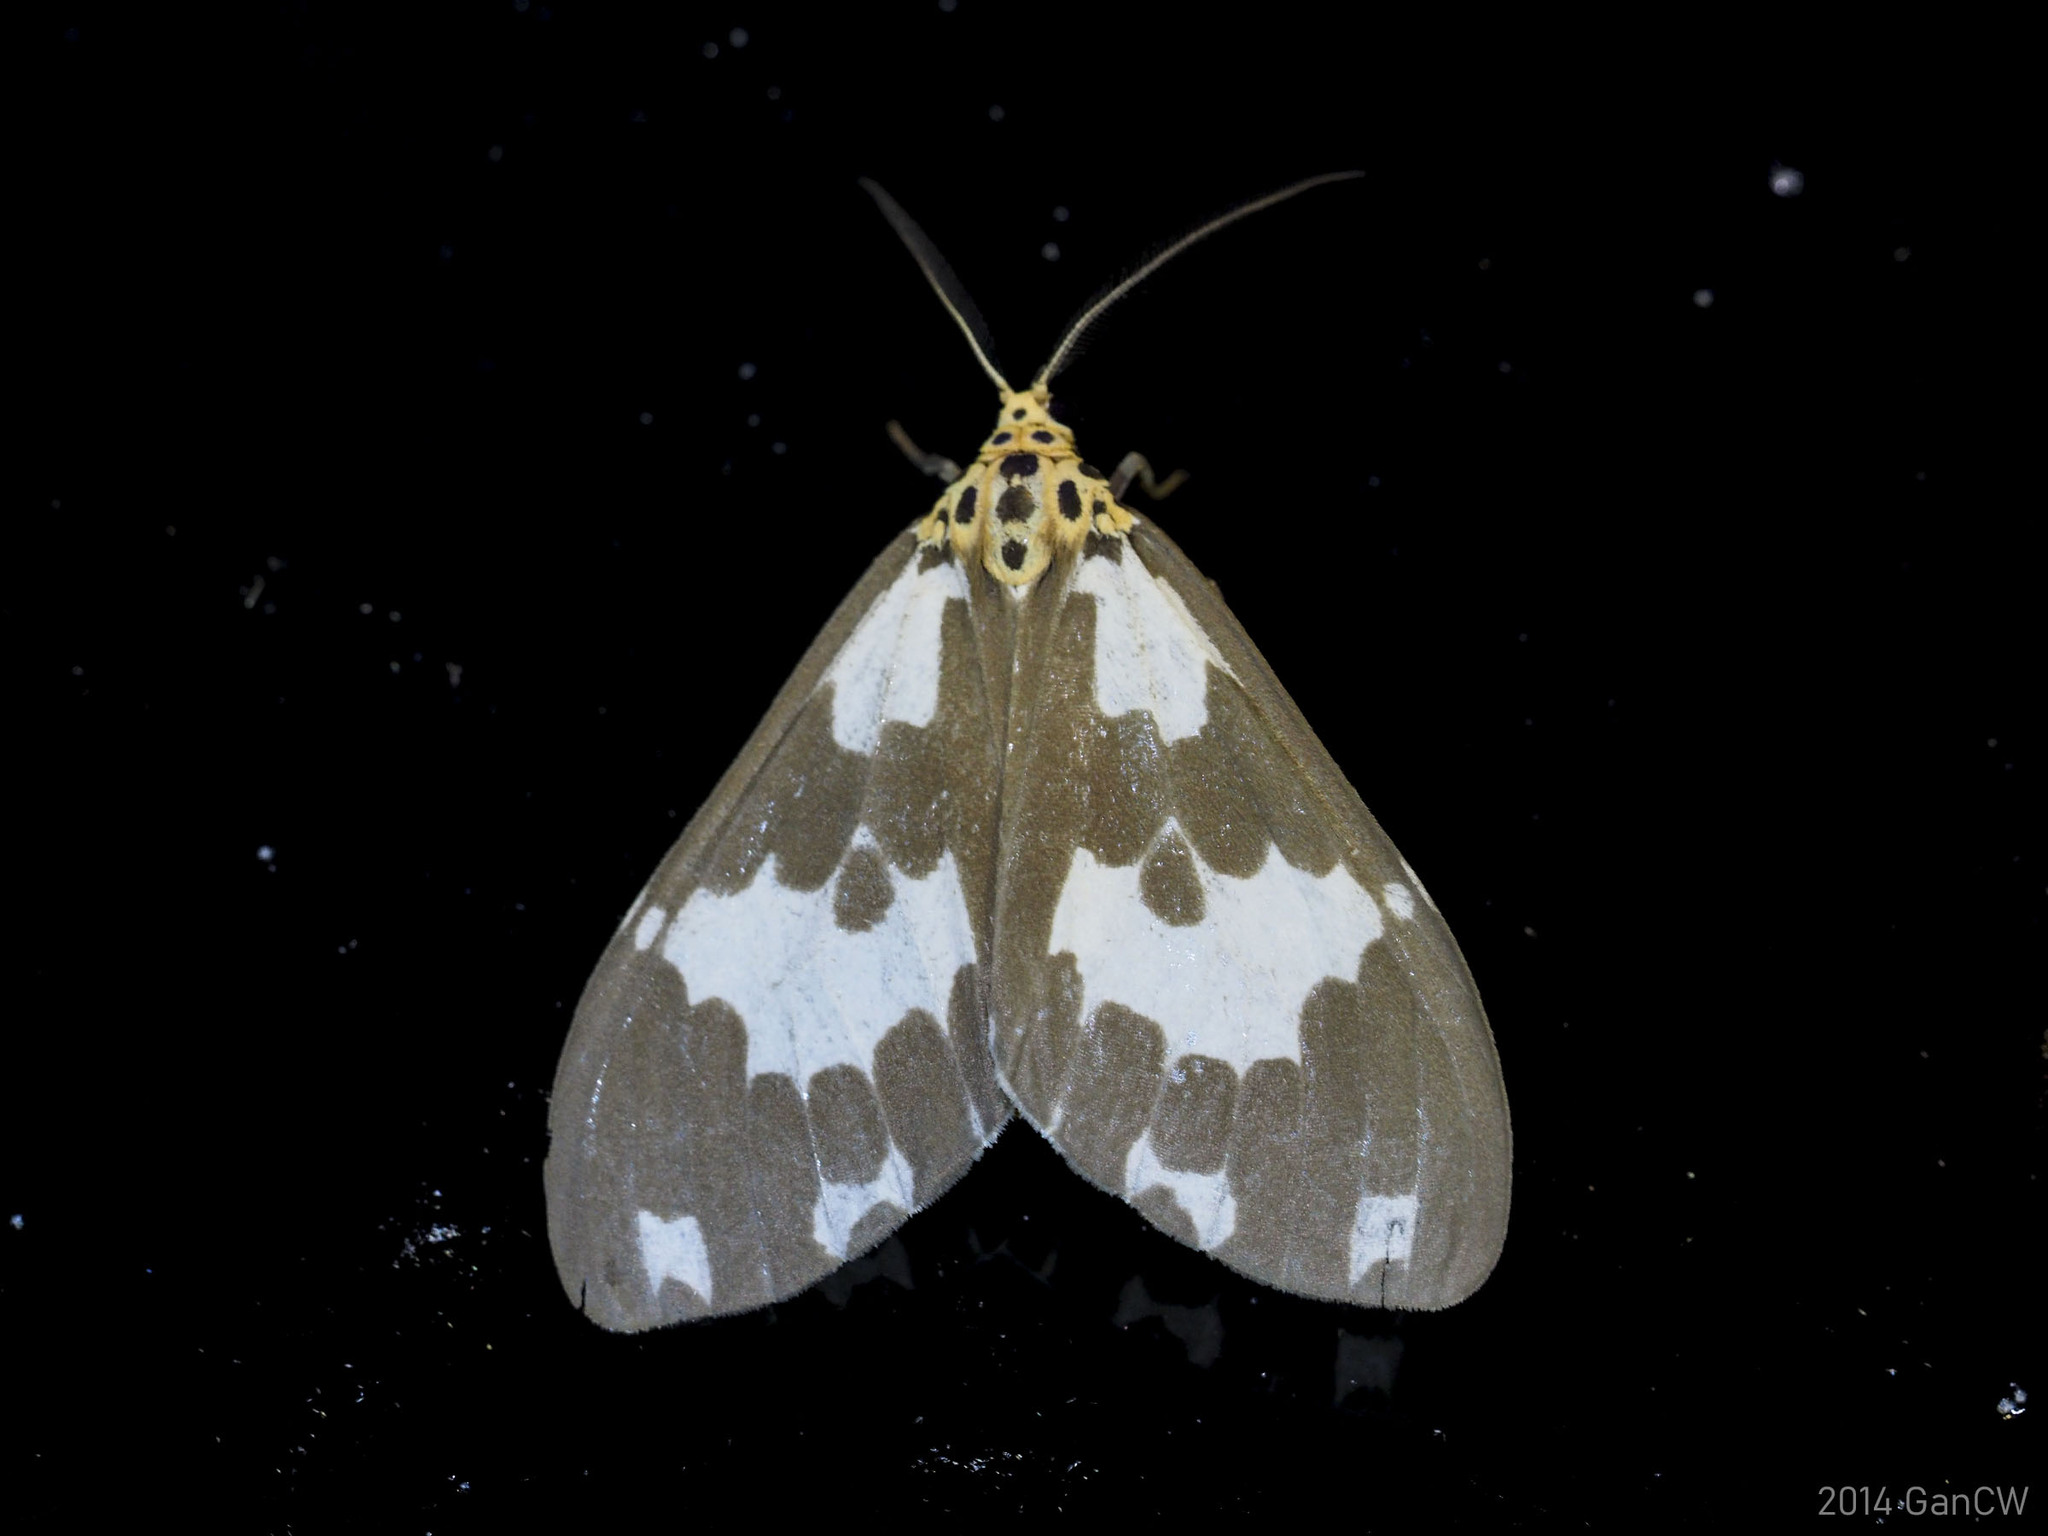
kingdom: Animalia
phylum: Arthropoda
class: Insecta
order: Lepidoptera
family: Erebidae
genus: Nyctemera
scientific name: Nyctemera carissima
